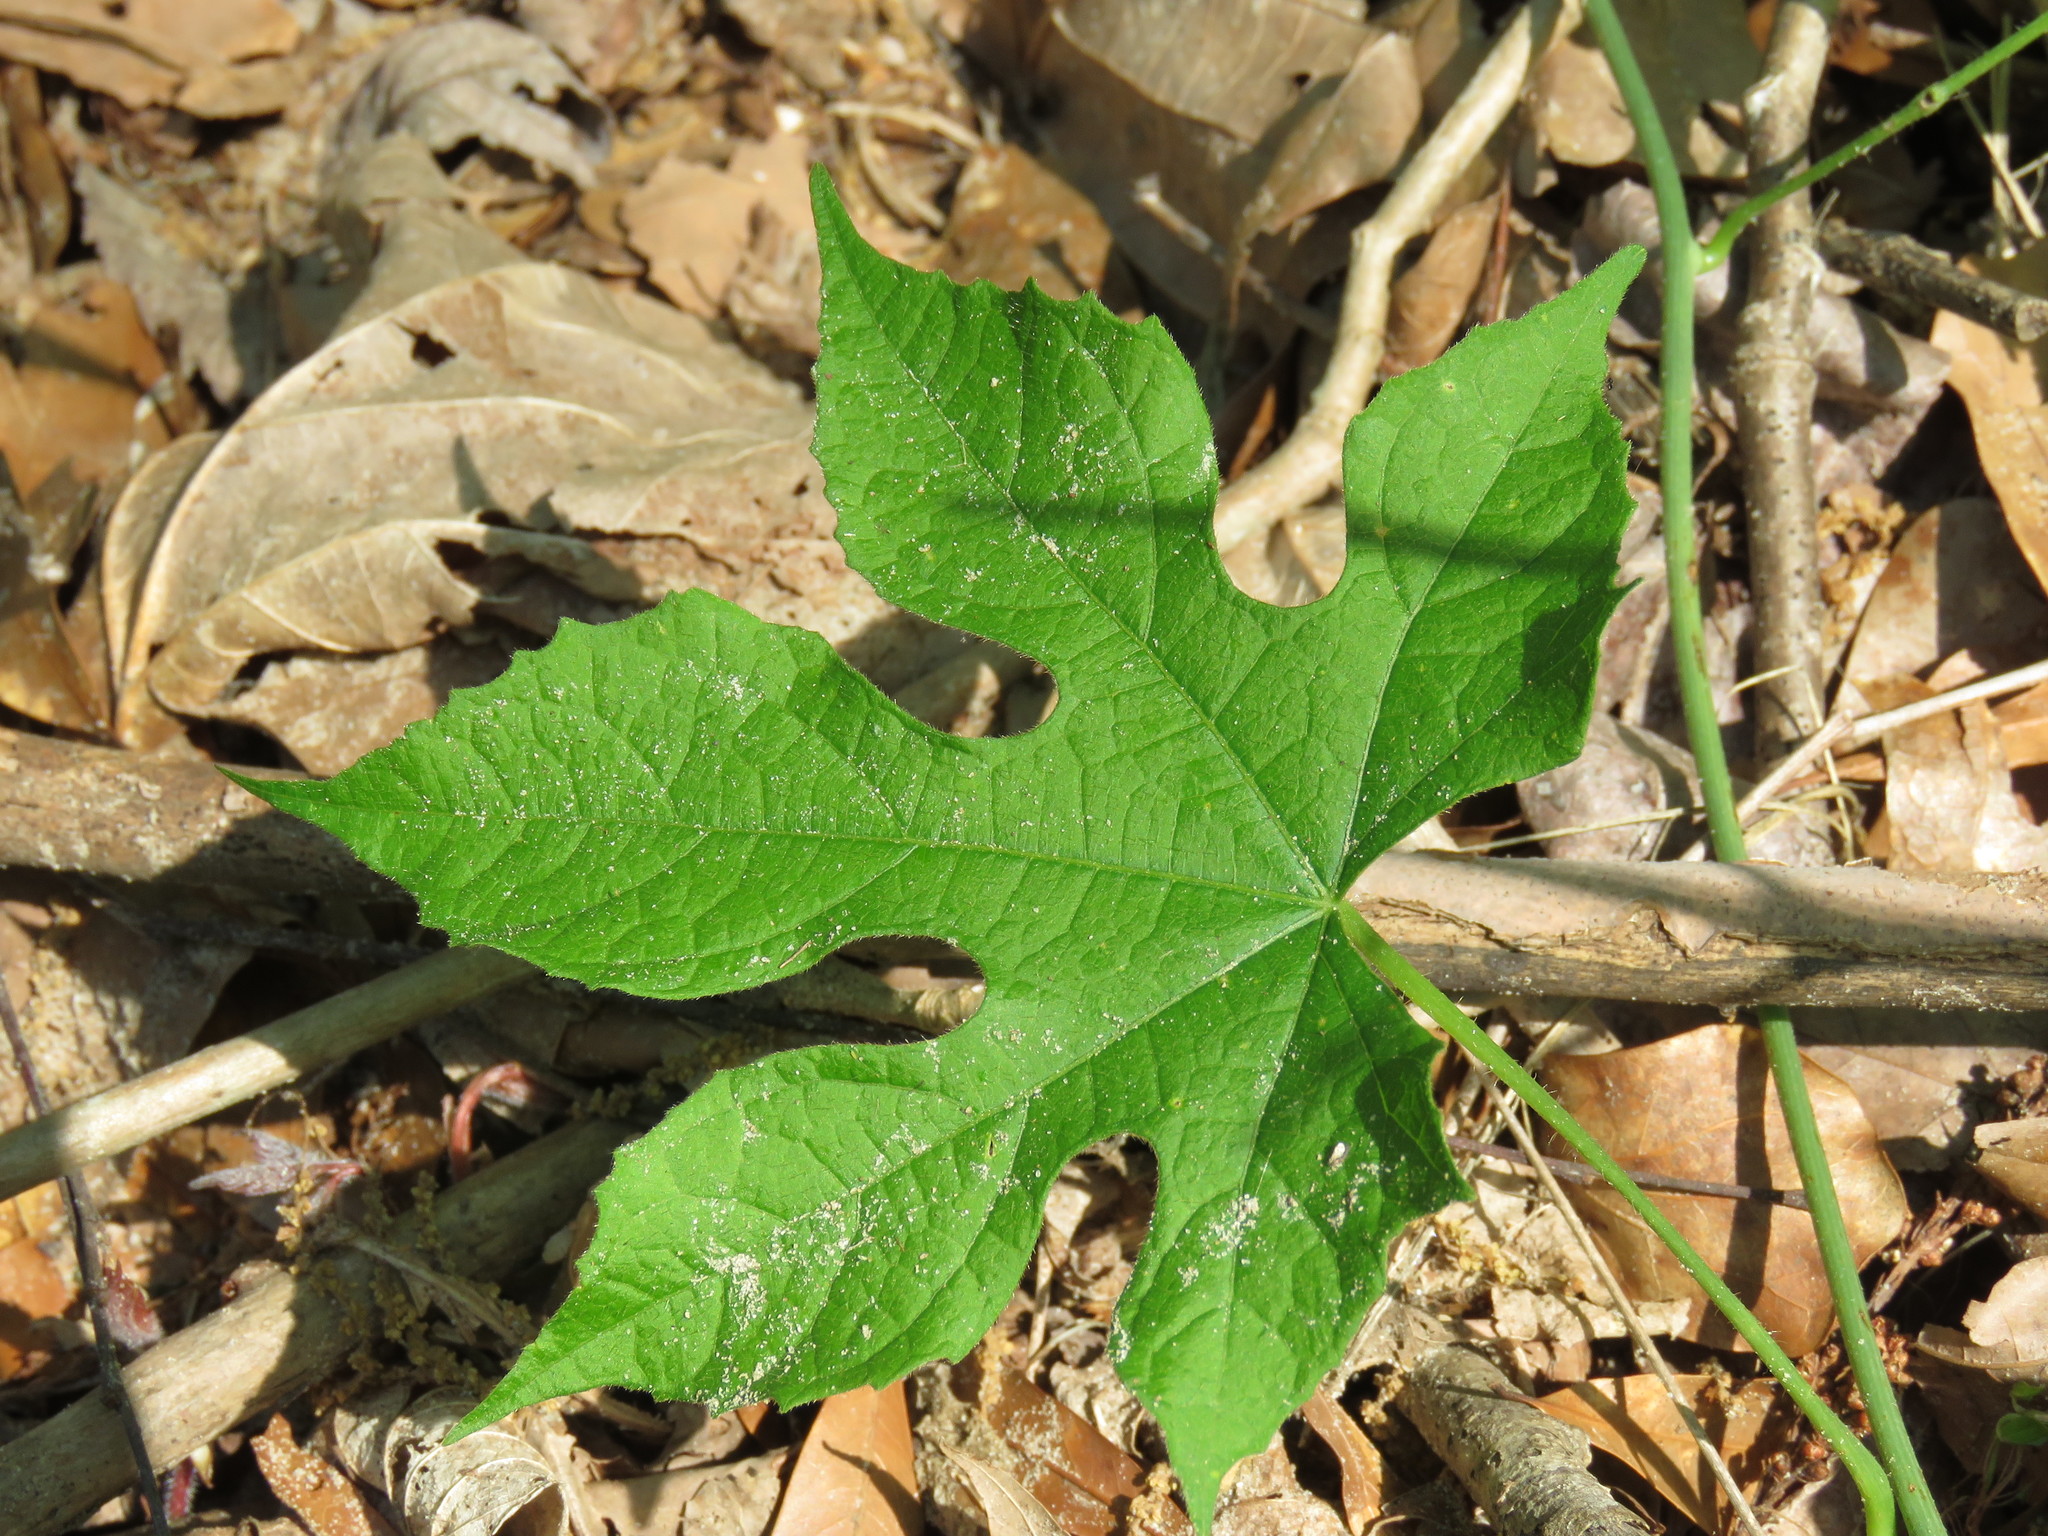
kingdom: Plantae
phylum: Tracheophyta
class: Magnoliopsida
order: Ranunculales
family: Menispermaceae
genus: Calycocarpum
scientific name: Calycocarpum lyonii
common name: Cupseed
